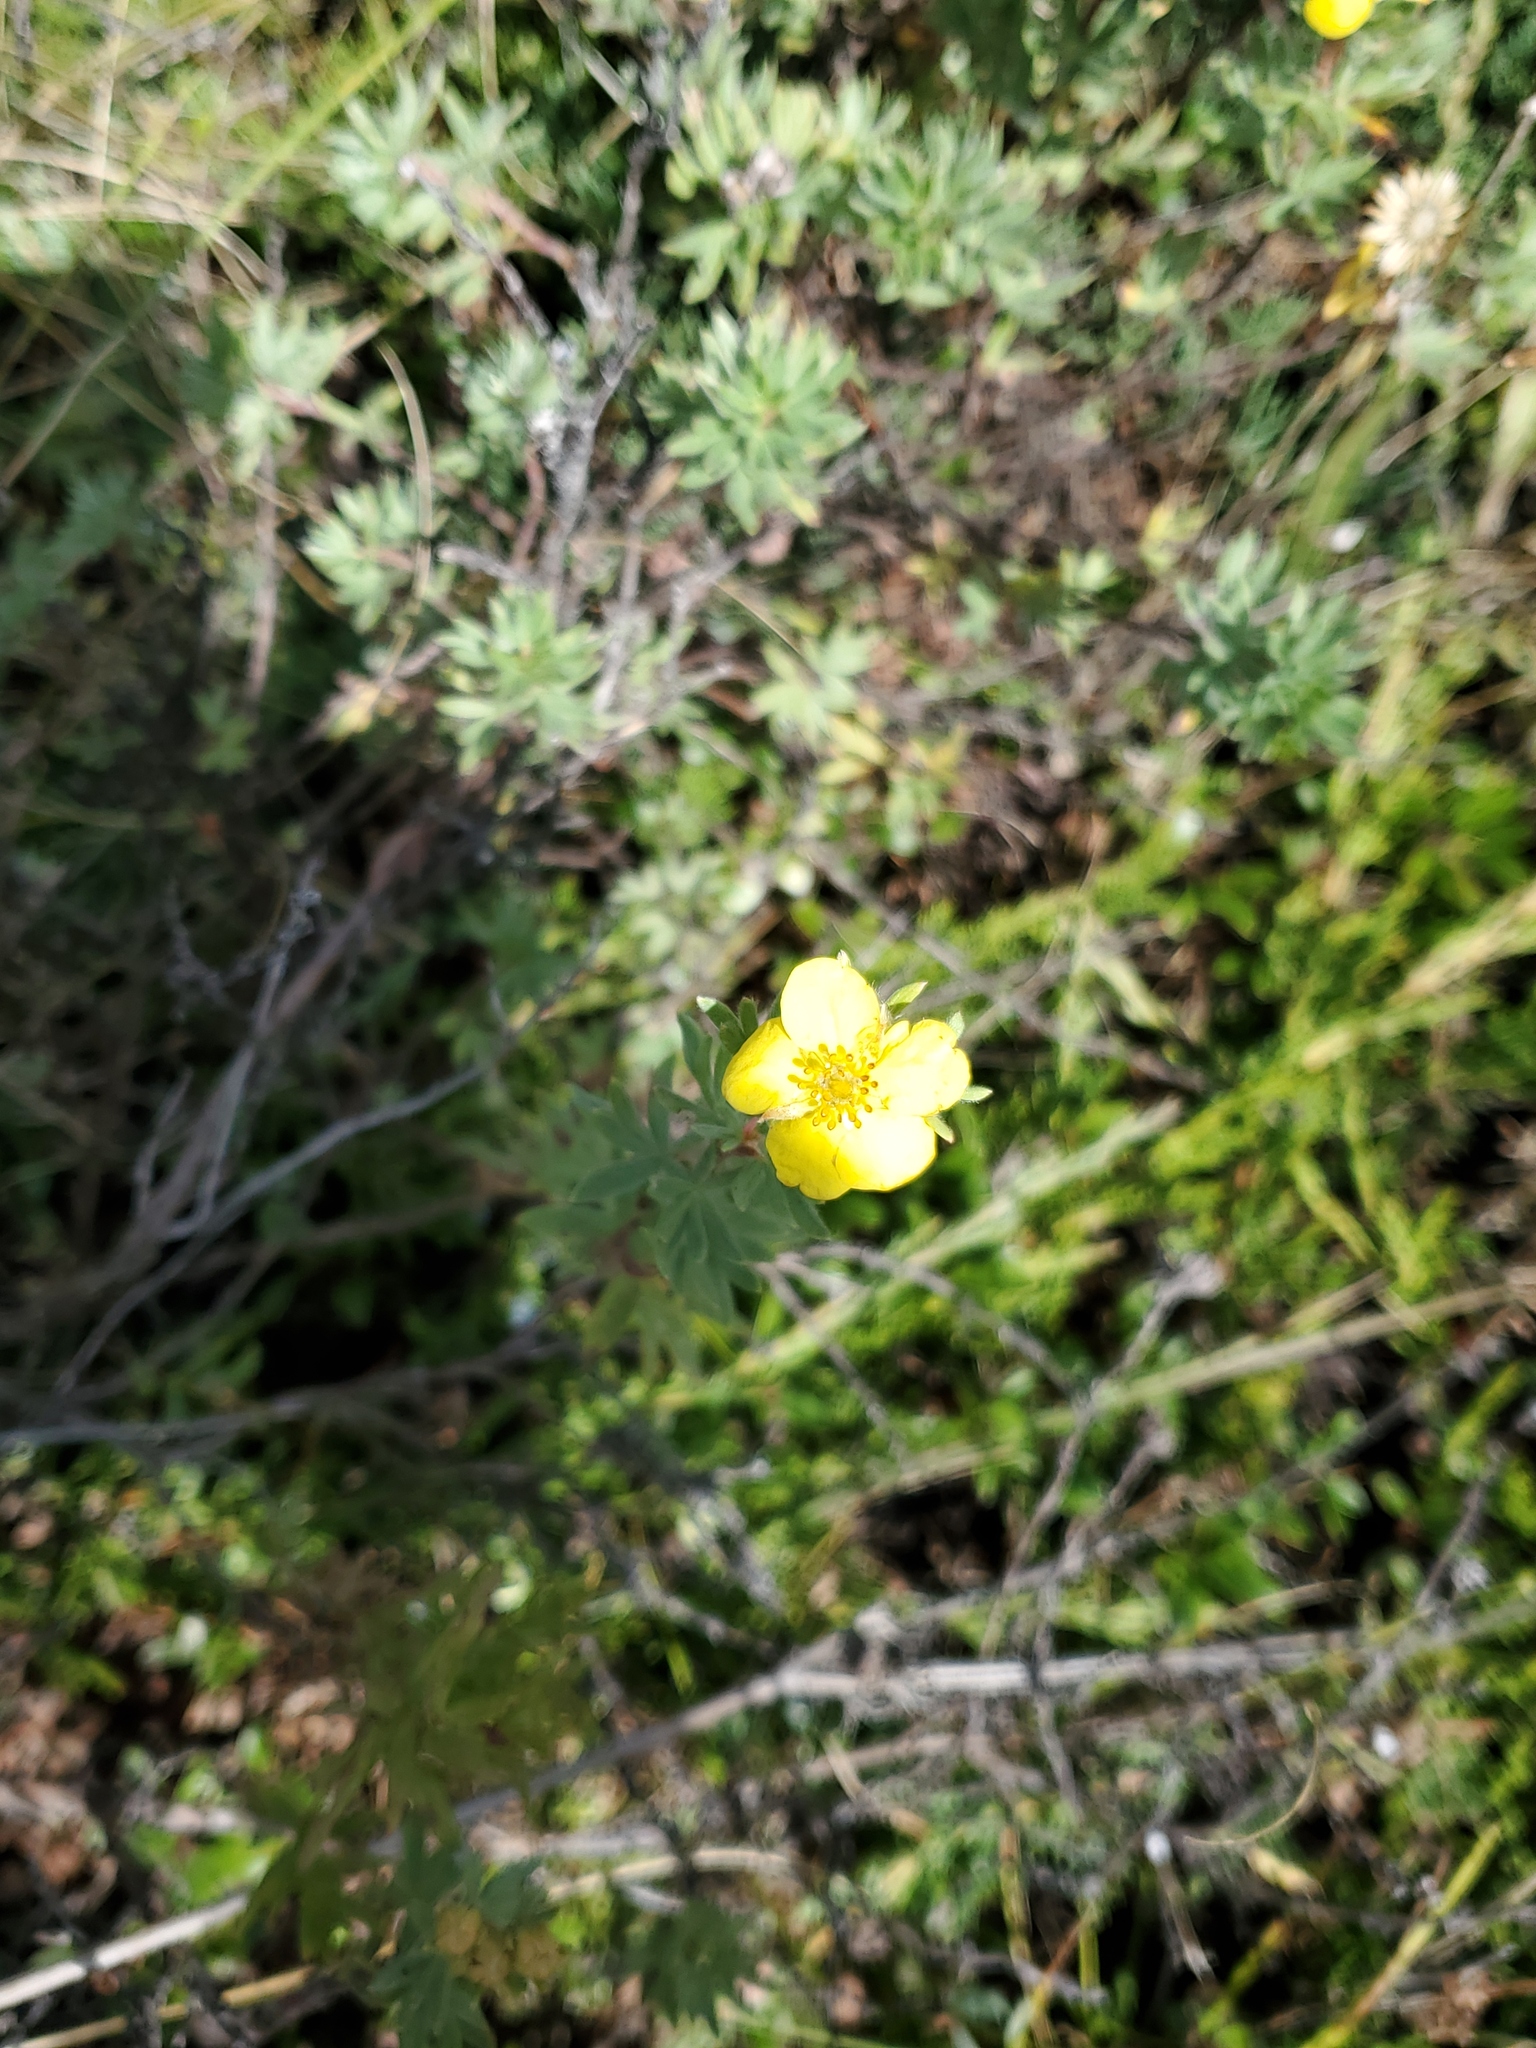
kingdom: Plantae
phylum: Tracheophyta
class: Magnoliopsida
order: Rosales
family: Rosaceae
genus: Dasiphora
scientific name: Dasiphora fruticosa
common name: Shrubby cinquefoil
